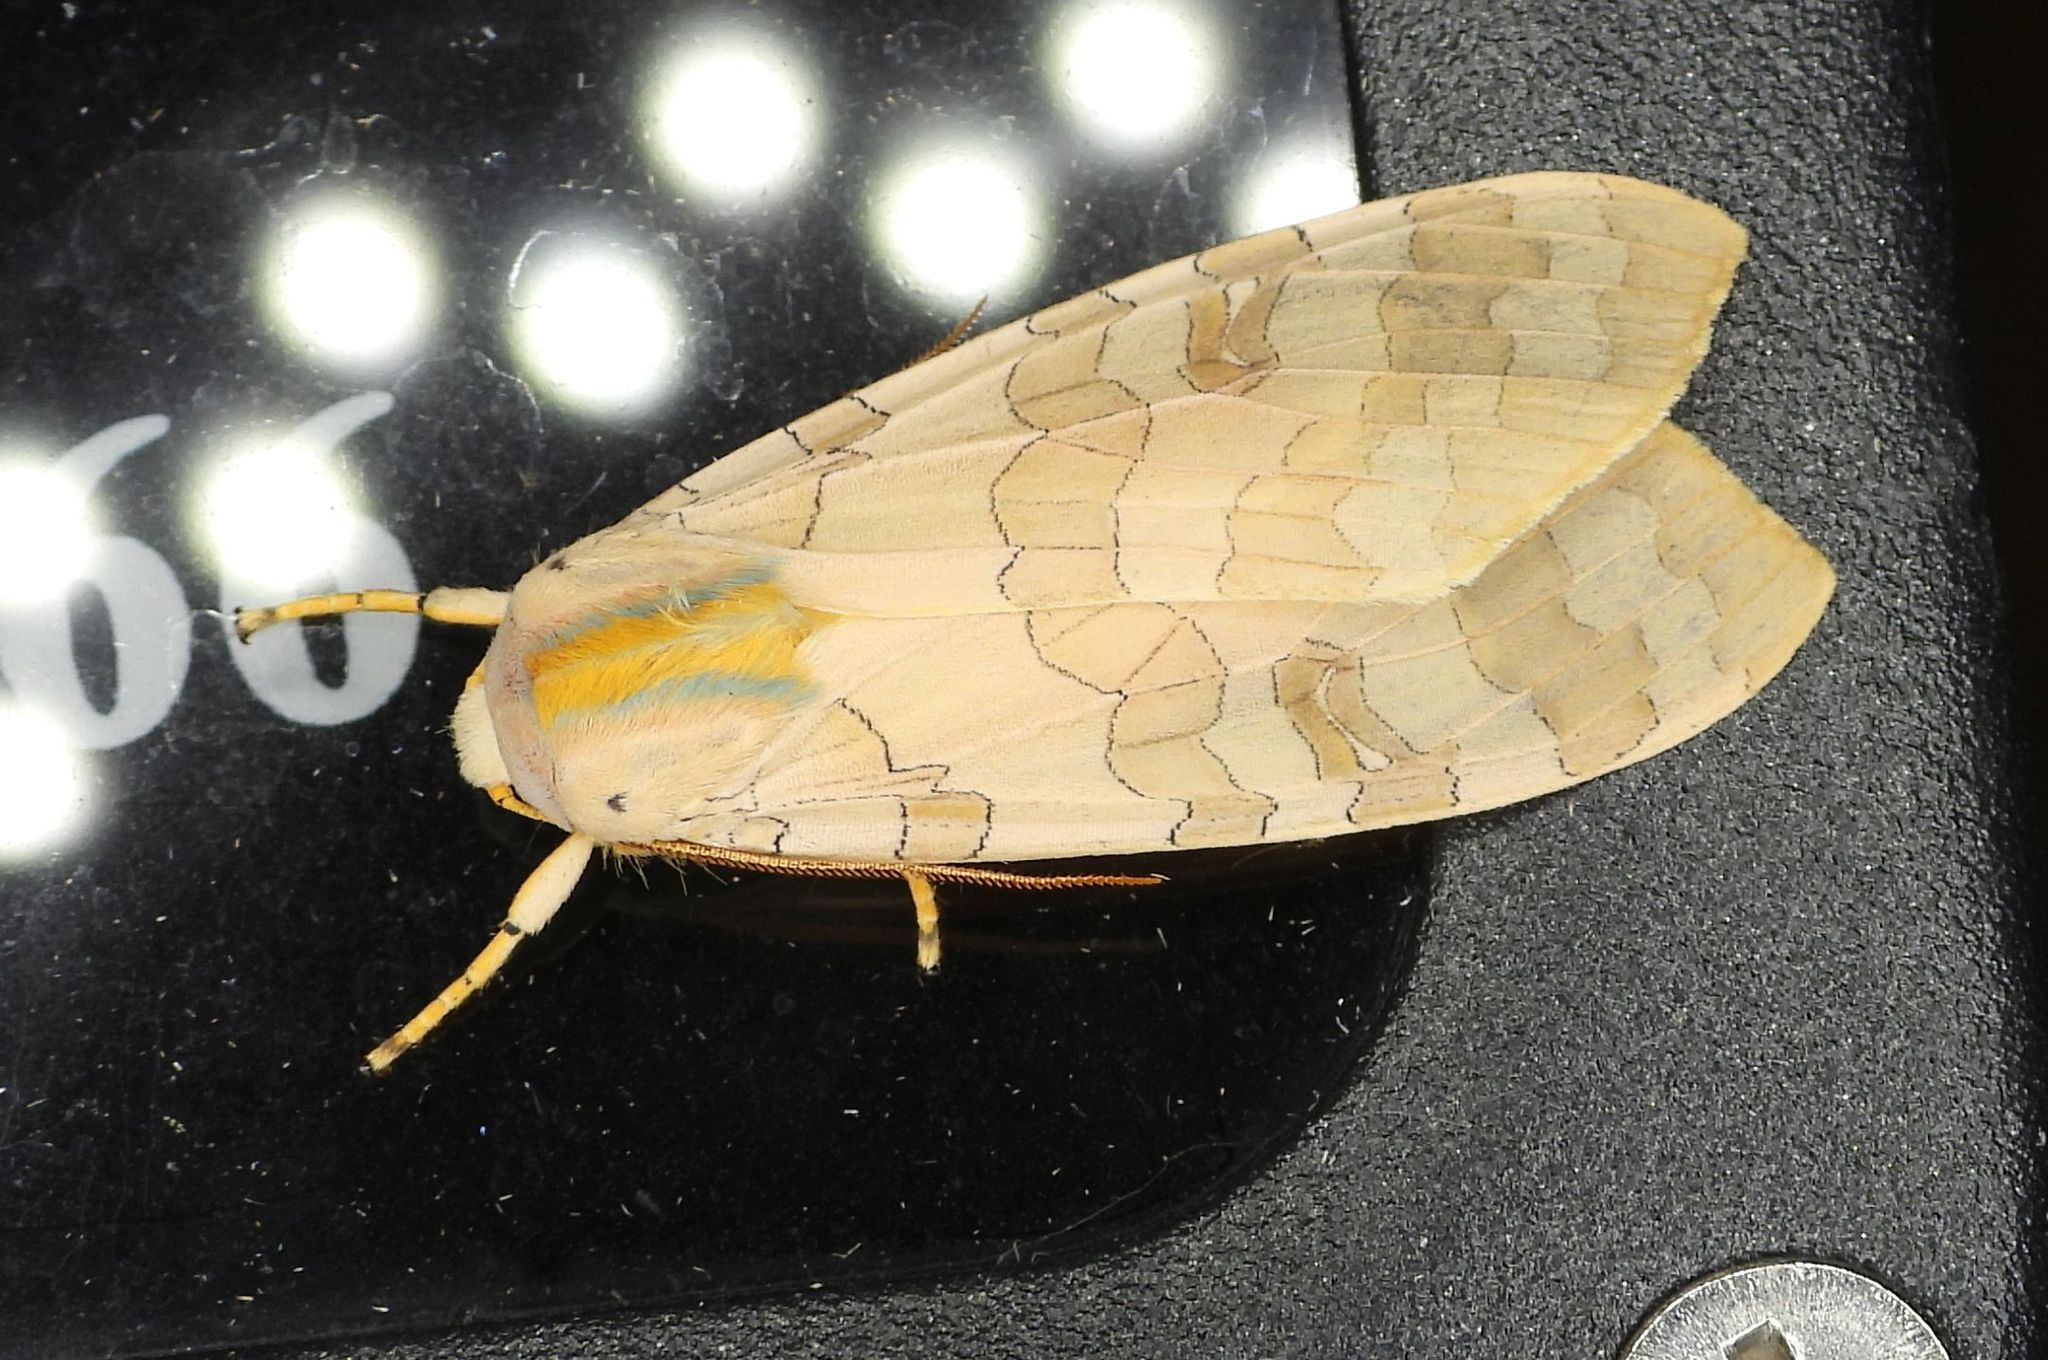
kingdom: Animalia
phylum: Arthropoda
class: Insecta
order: Lepidoptera
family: Erebidae
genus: Halysidota
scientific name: Halysidota tessellaris
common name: Banded tussock moth
